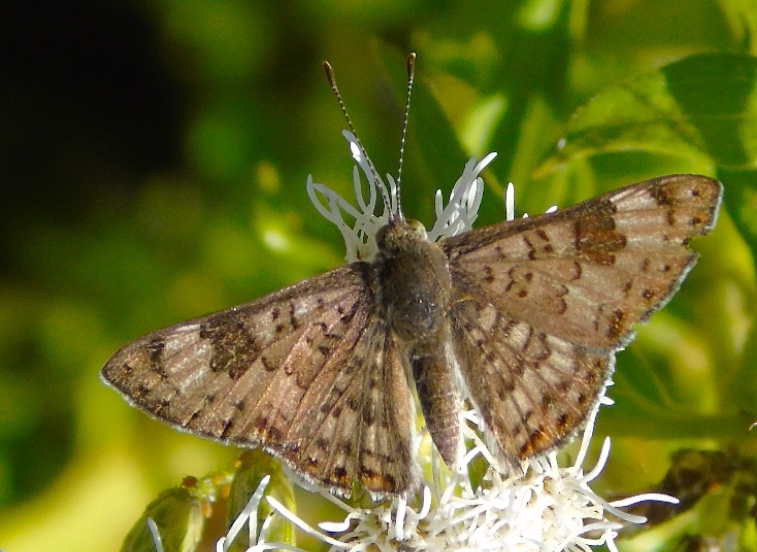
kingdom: Animalia
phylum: Arthropoda
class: Insecta
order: Lepidoptera
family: Riodinidae
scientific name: Riodinidae
